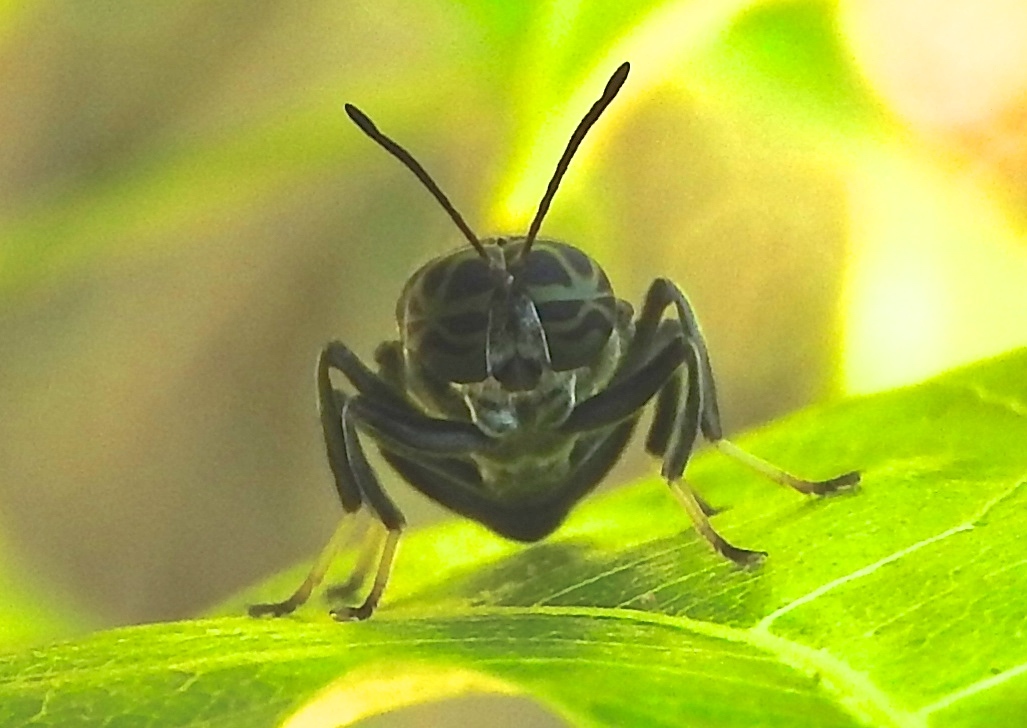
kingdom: Animalia
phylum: Arthropoda
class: Insecta
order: Diptera
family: Stratiomyidae
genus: Cyphomyia
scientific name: Cyphomyia
